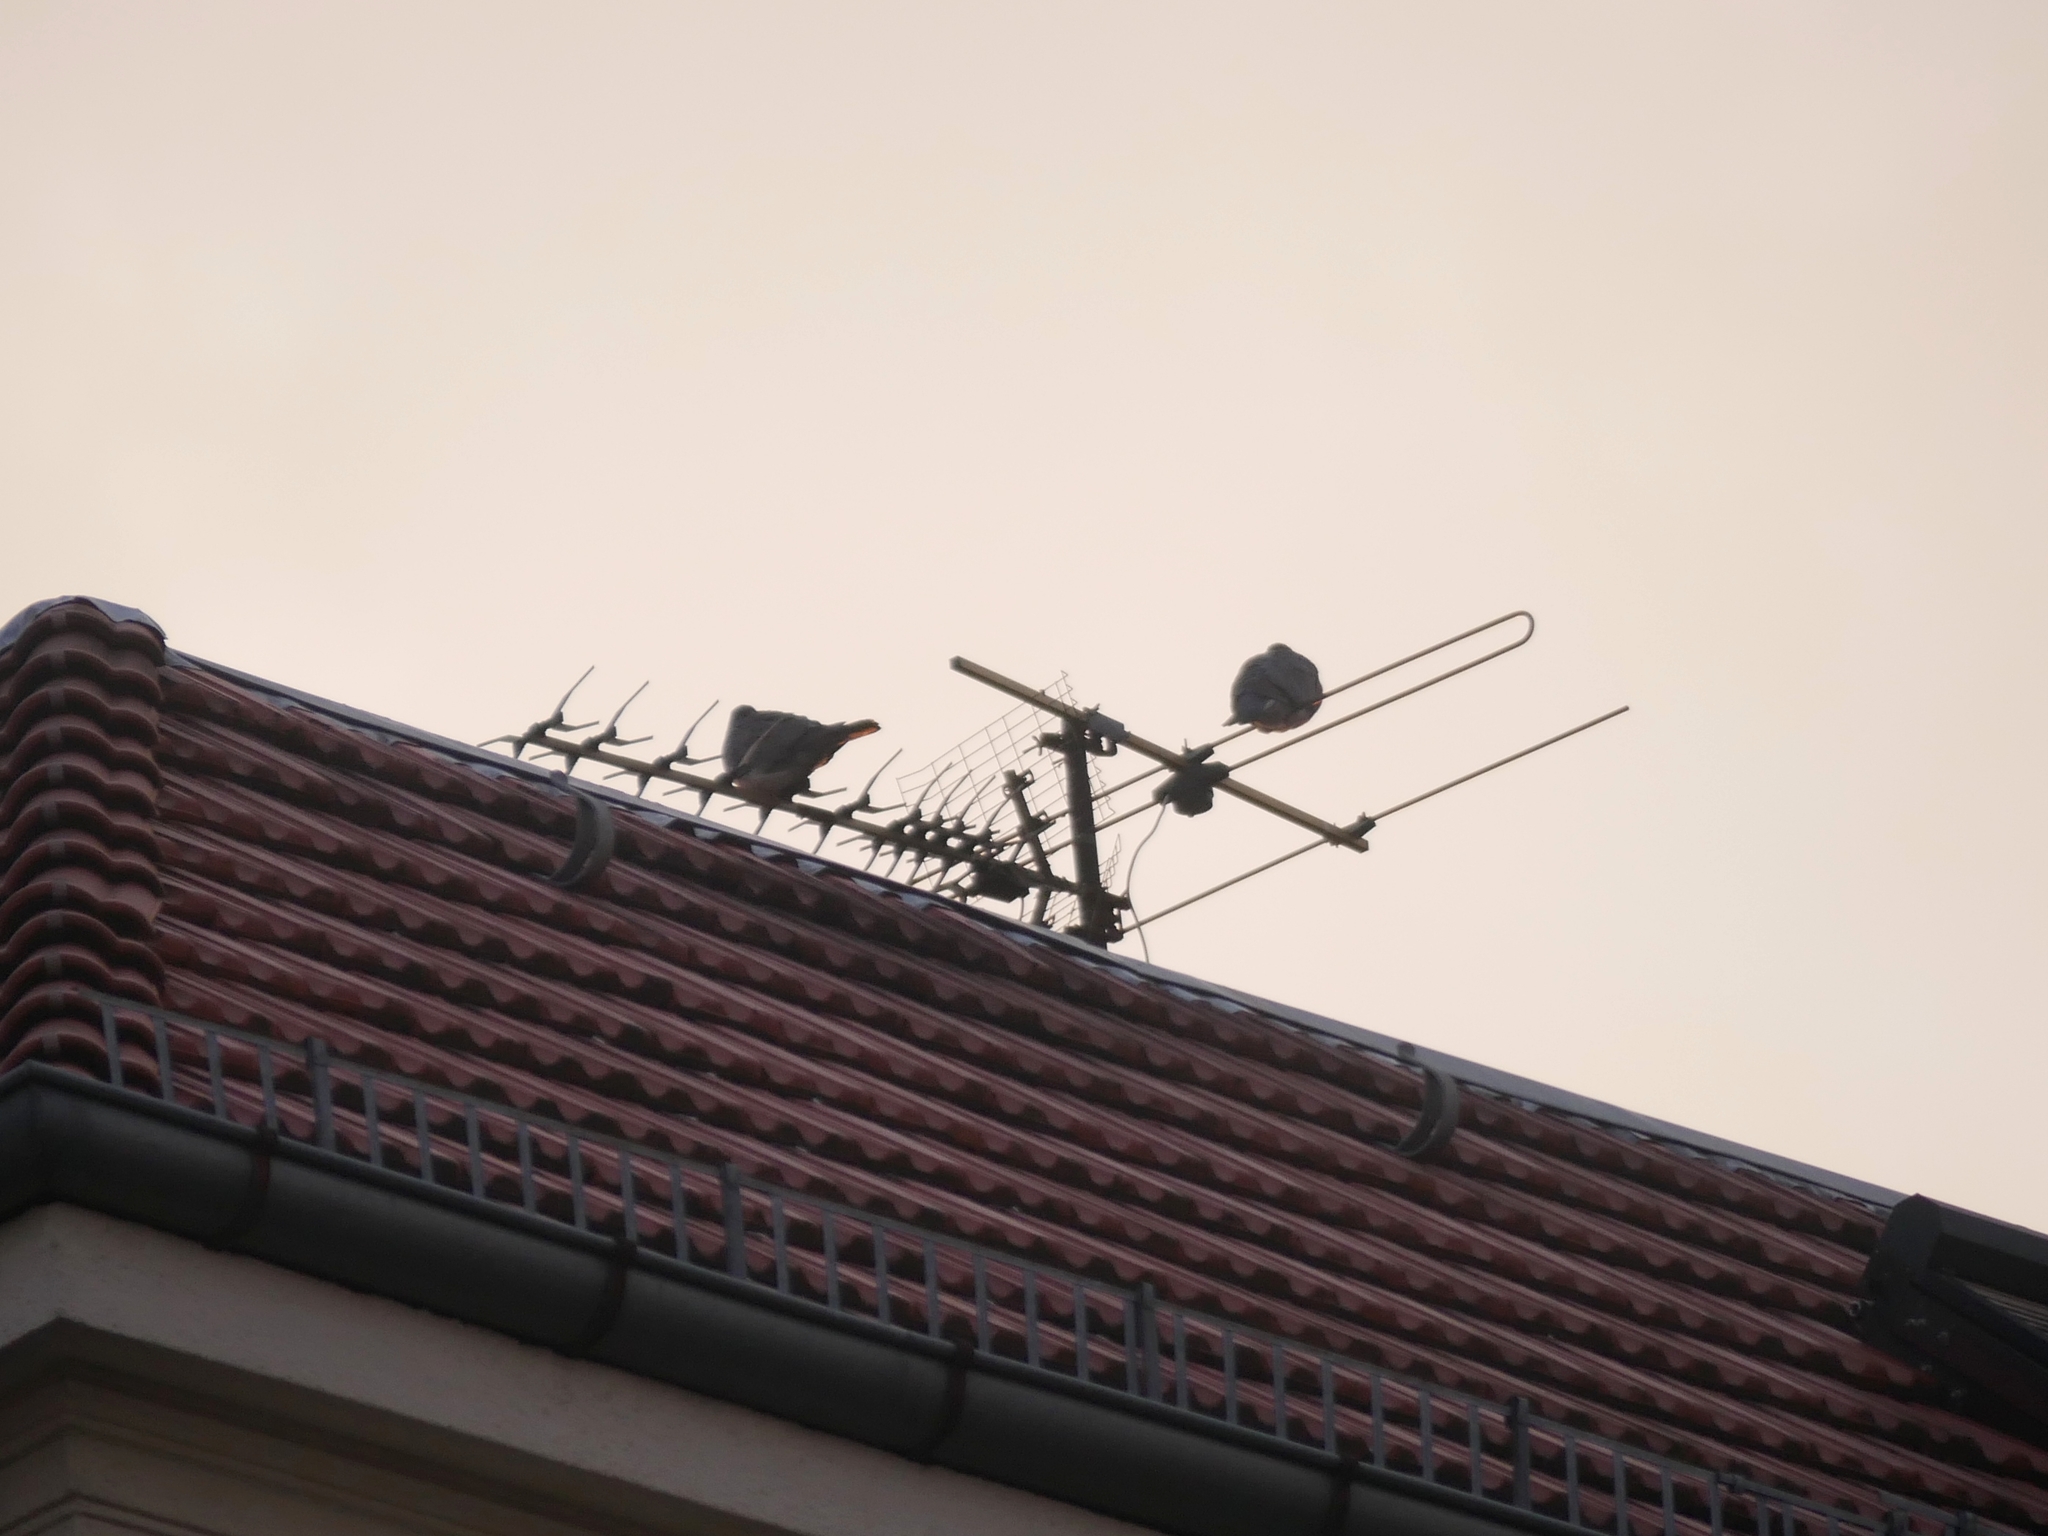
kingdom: Animalia
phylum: Chordata
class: Aves
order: Columbiformes
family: Columbidae
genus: Columba
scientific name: Columba palumbus
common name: Common wood pigeon
